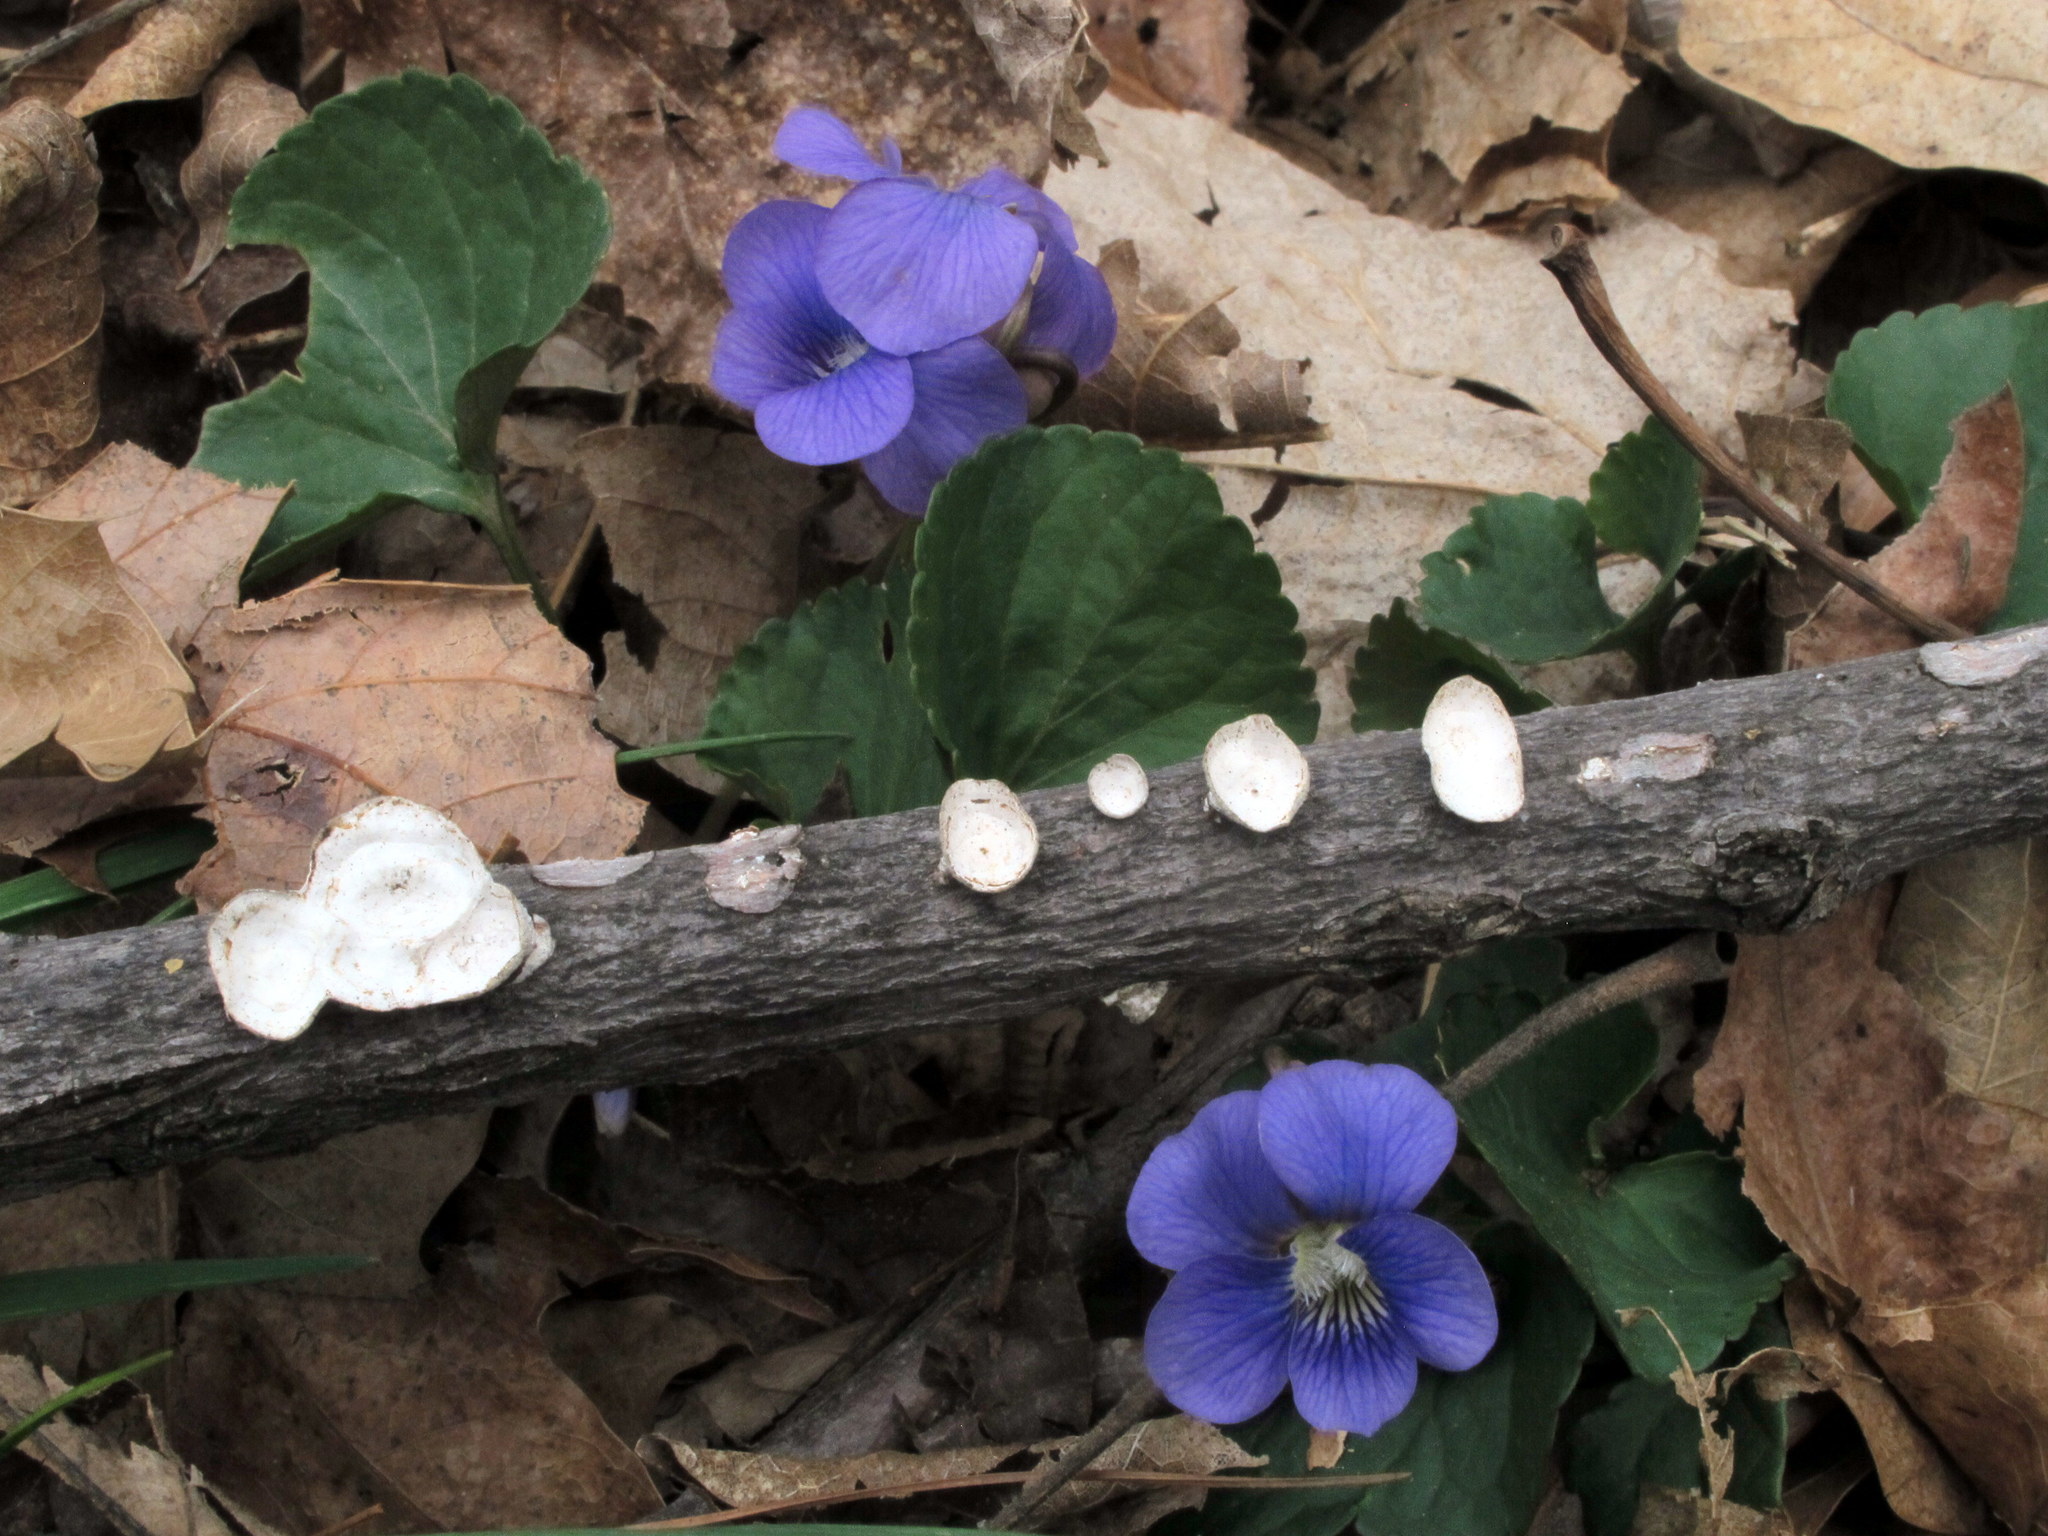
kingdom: Fungi
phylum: Basidiomycota
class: Agaricomycetes
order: Polyporales
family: Polyporaceae
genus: Poronidulus
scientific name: Poronidulus conchifer
